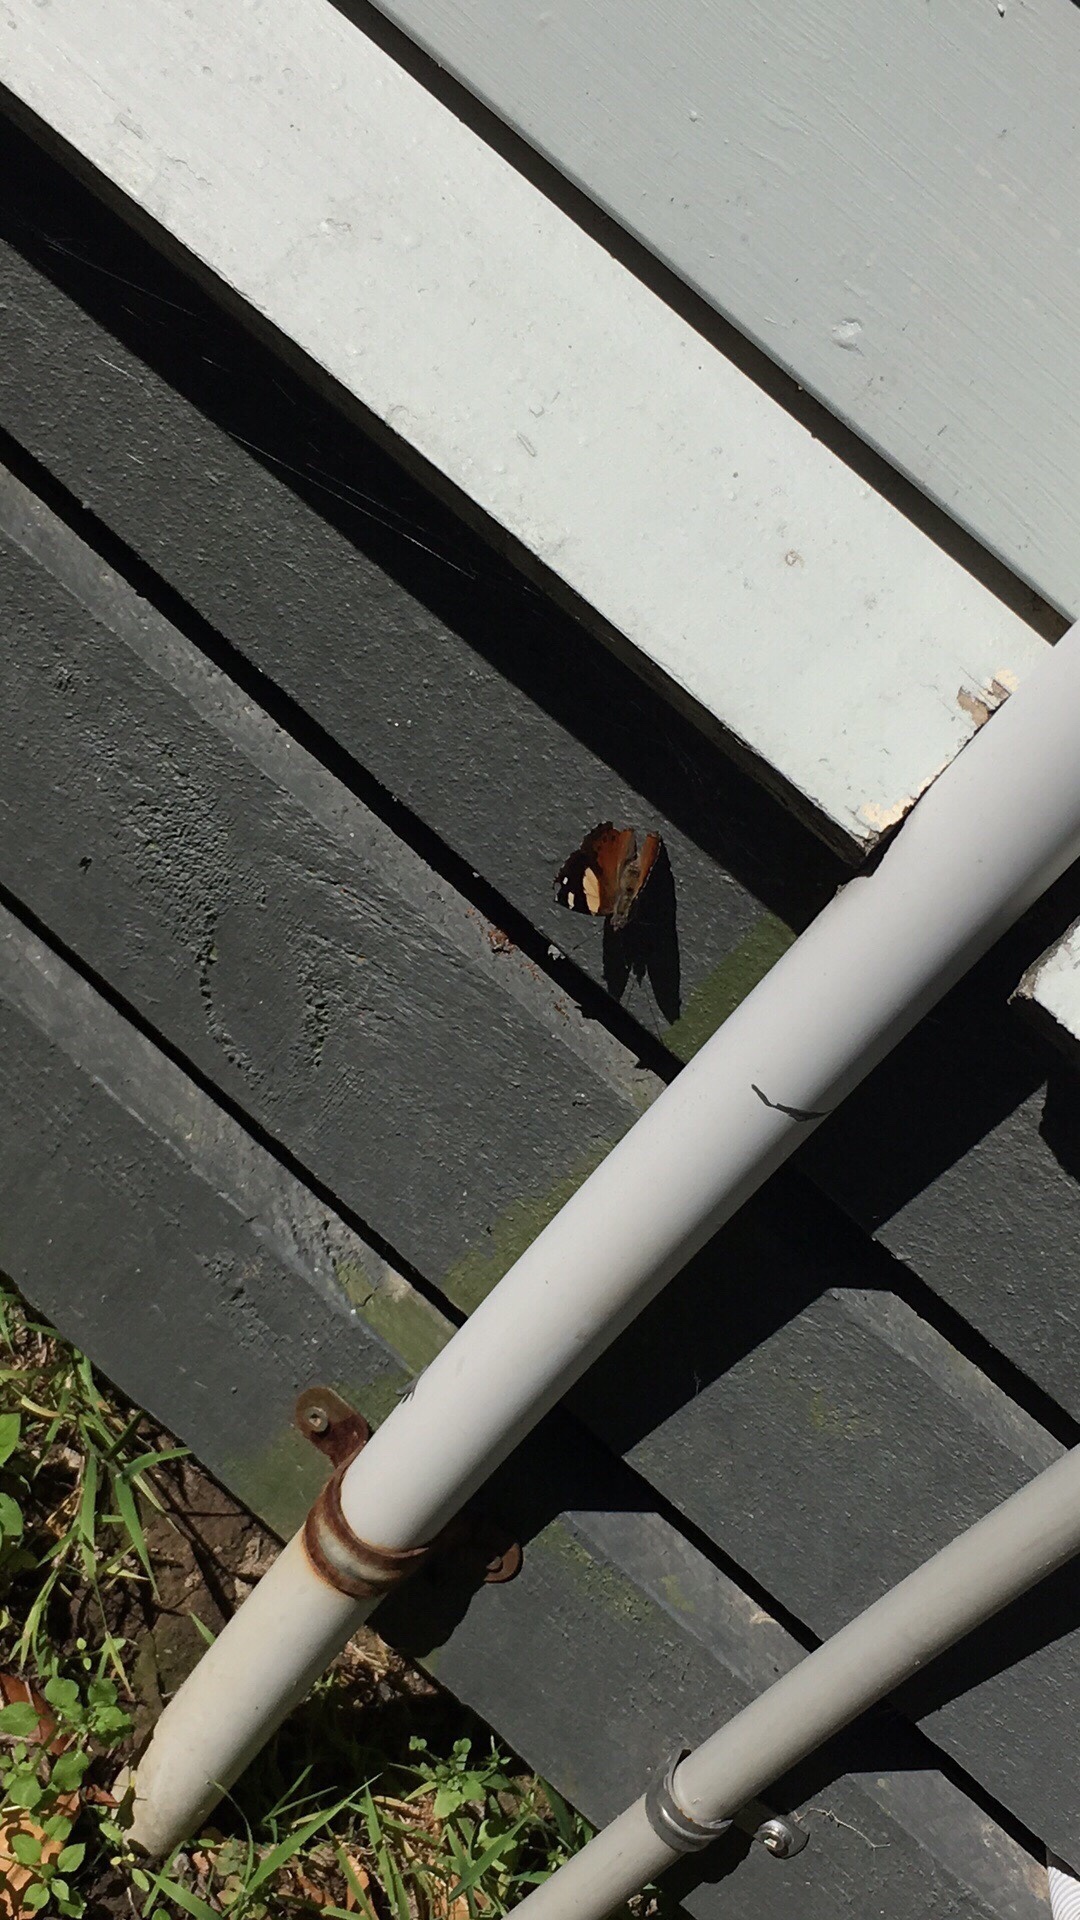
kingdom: Animalia
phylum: Arthropoda
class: Insecta
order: Lepidoptera
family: Nymphalidae
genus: Vanessa
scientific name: Vanessa itea
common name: Yellow admiral
